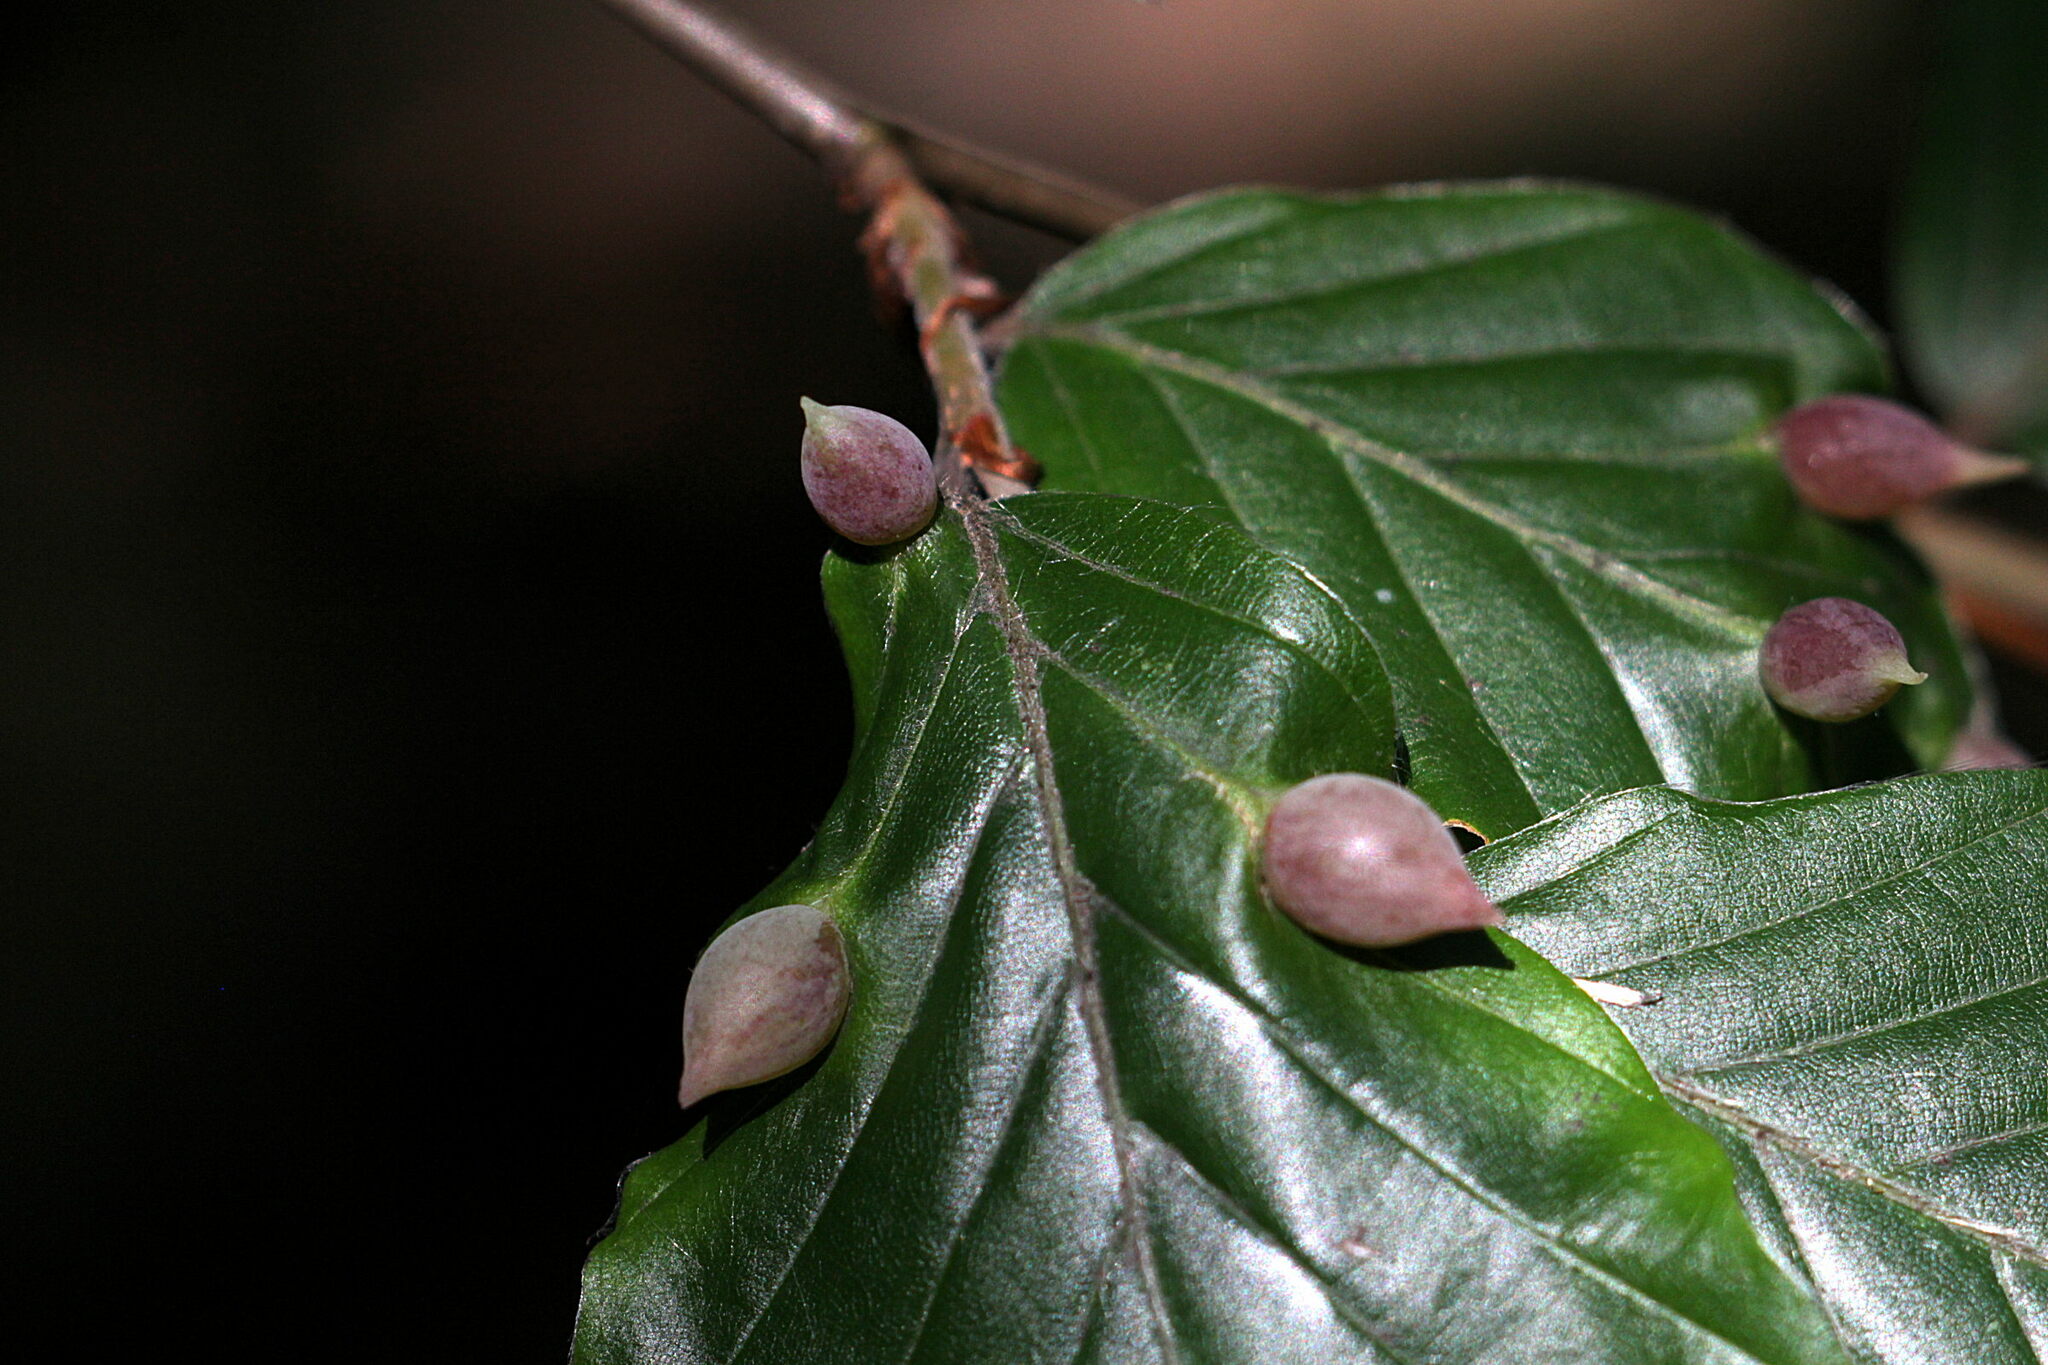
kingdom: Animalia
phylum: Arthropoda
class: Insecta
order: Diptera
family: Cecidomyiidae
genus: Mikiola
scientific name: Mikiola fagi
